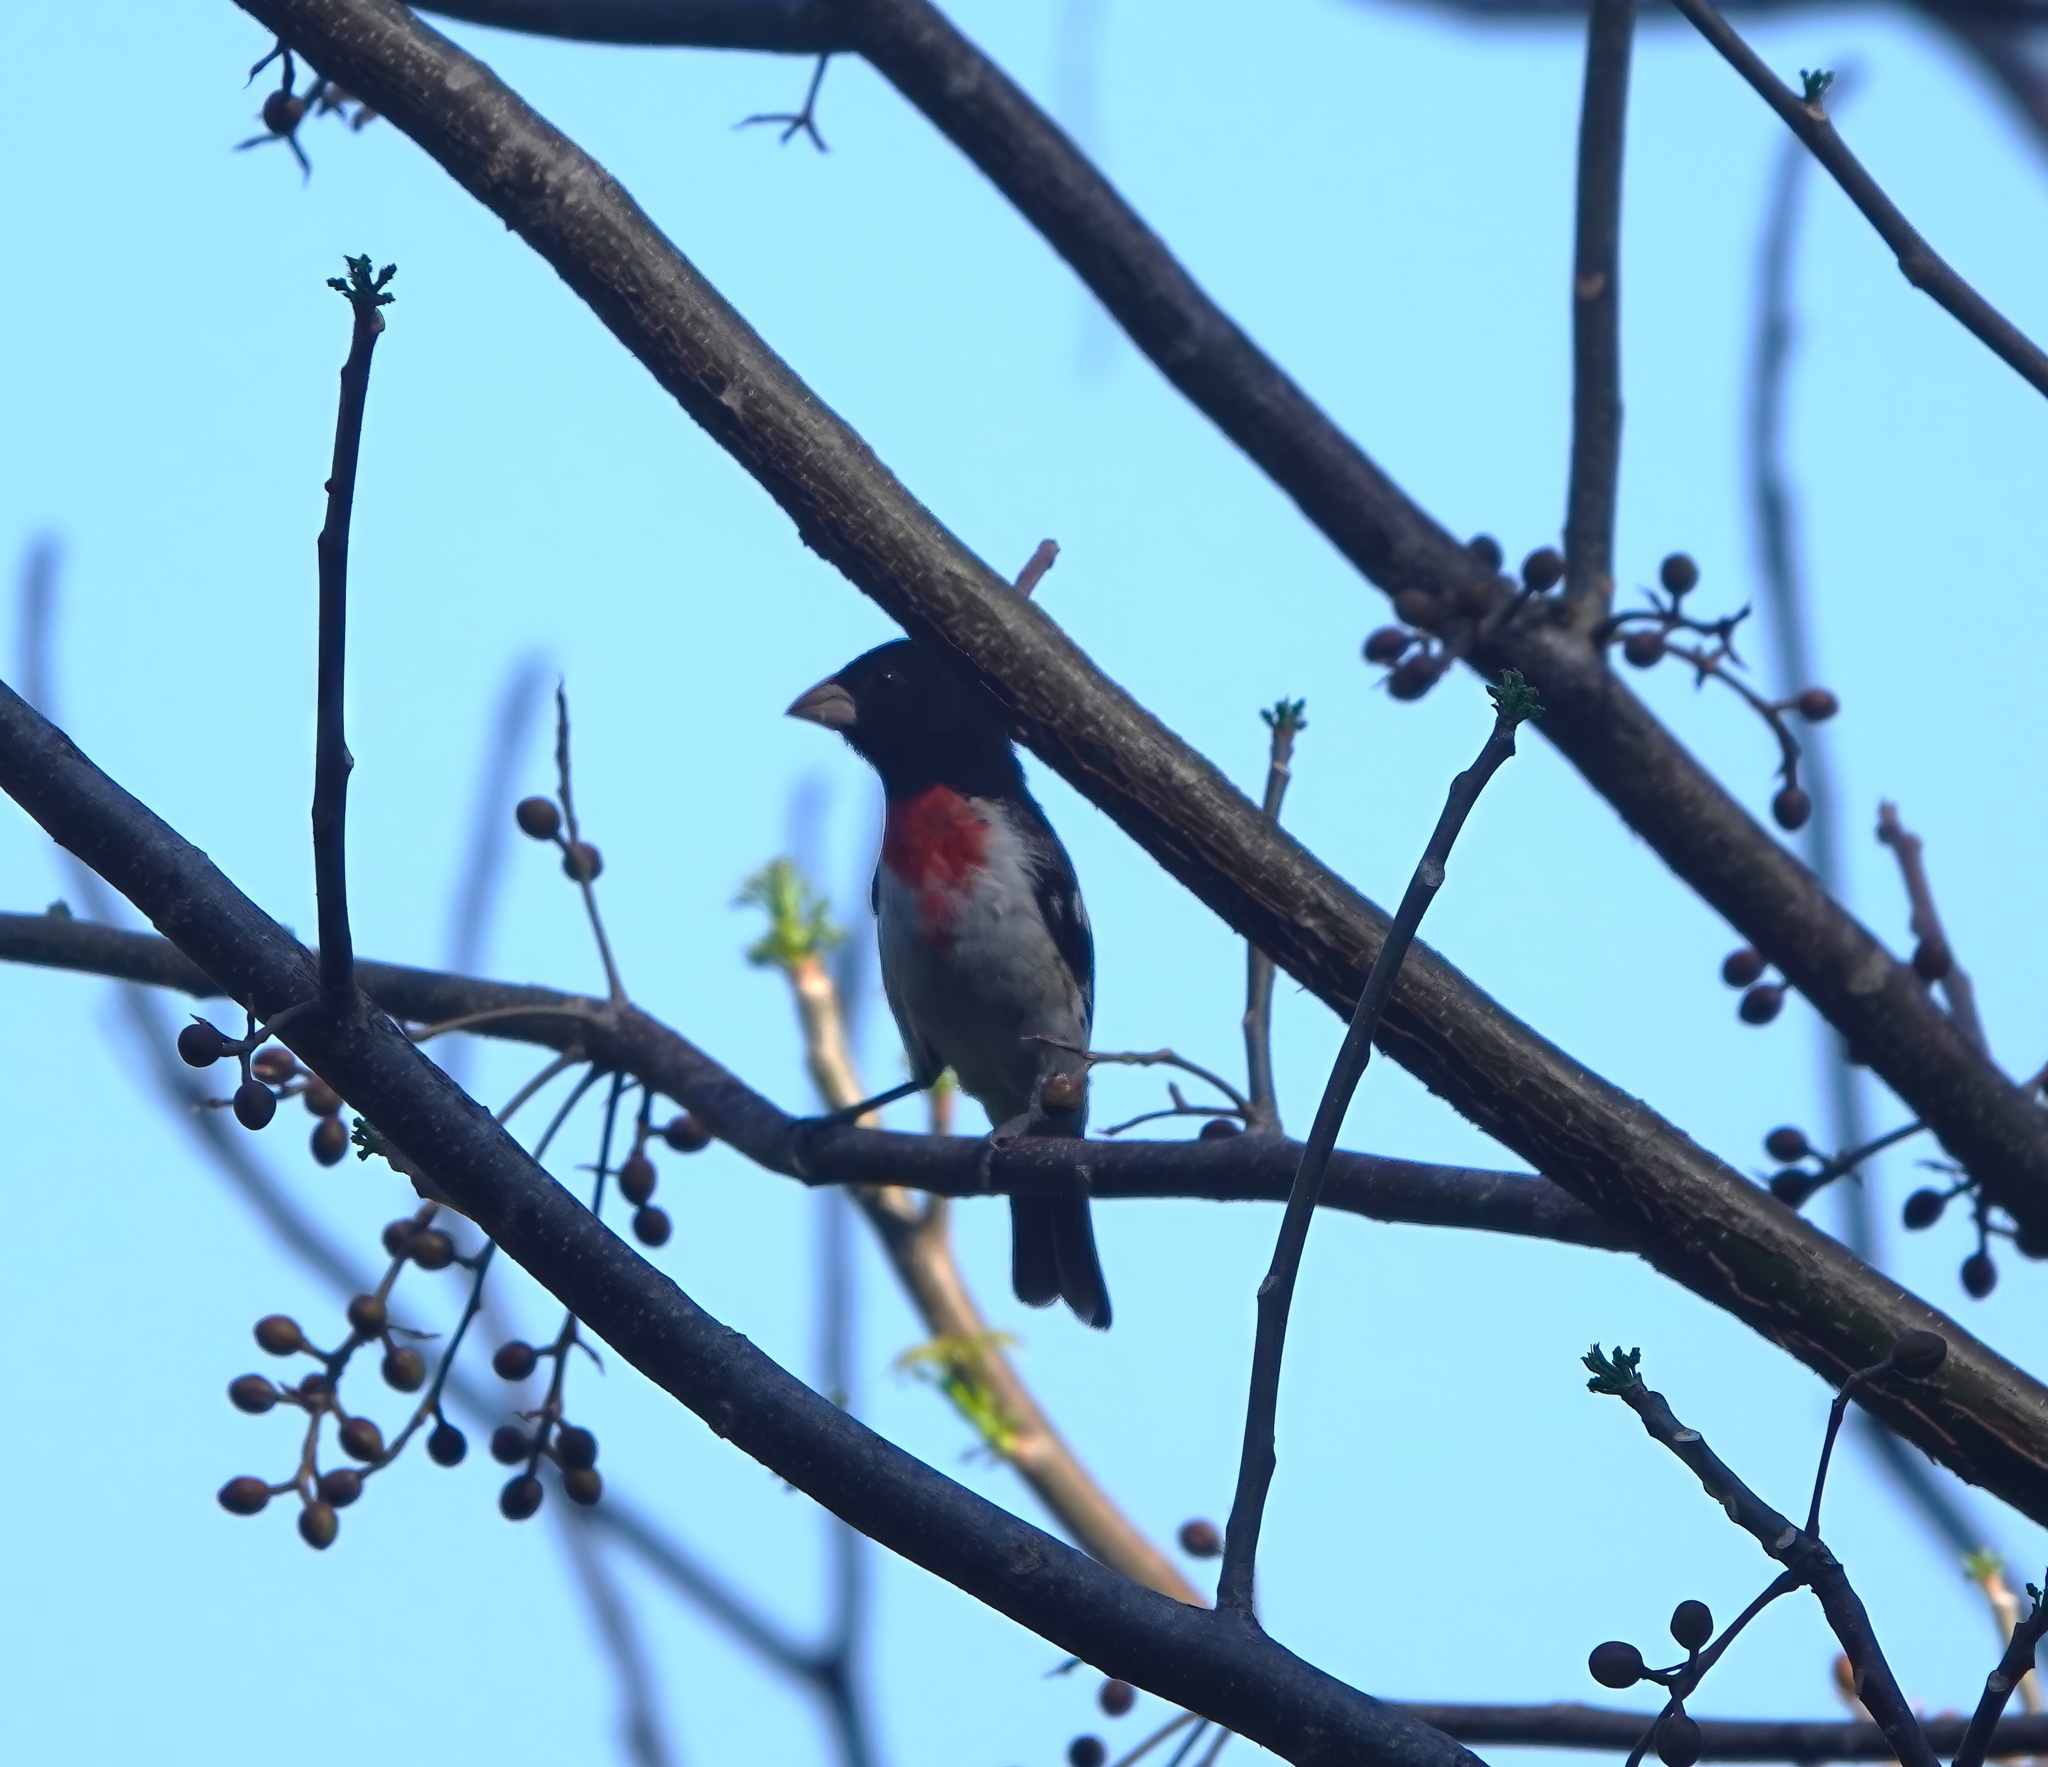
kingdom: Animalia
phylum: Chordata
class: Aves
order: Passeriformes
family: Cardinalidae
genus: Pheucticus
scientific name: Pheucticus ludovicianus
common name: Rose-breasted grosbeak
